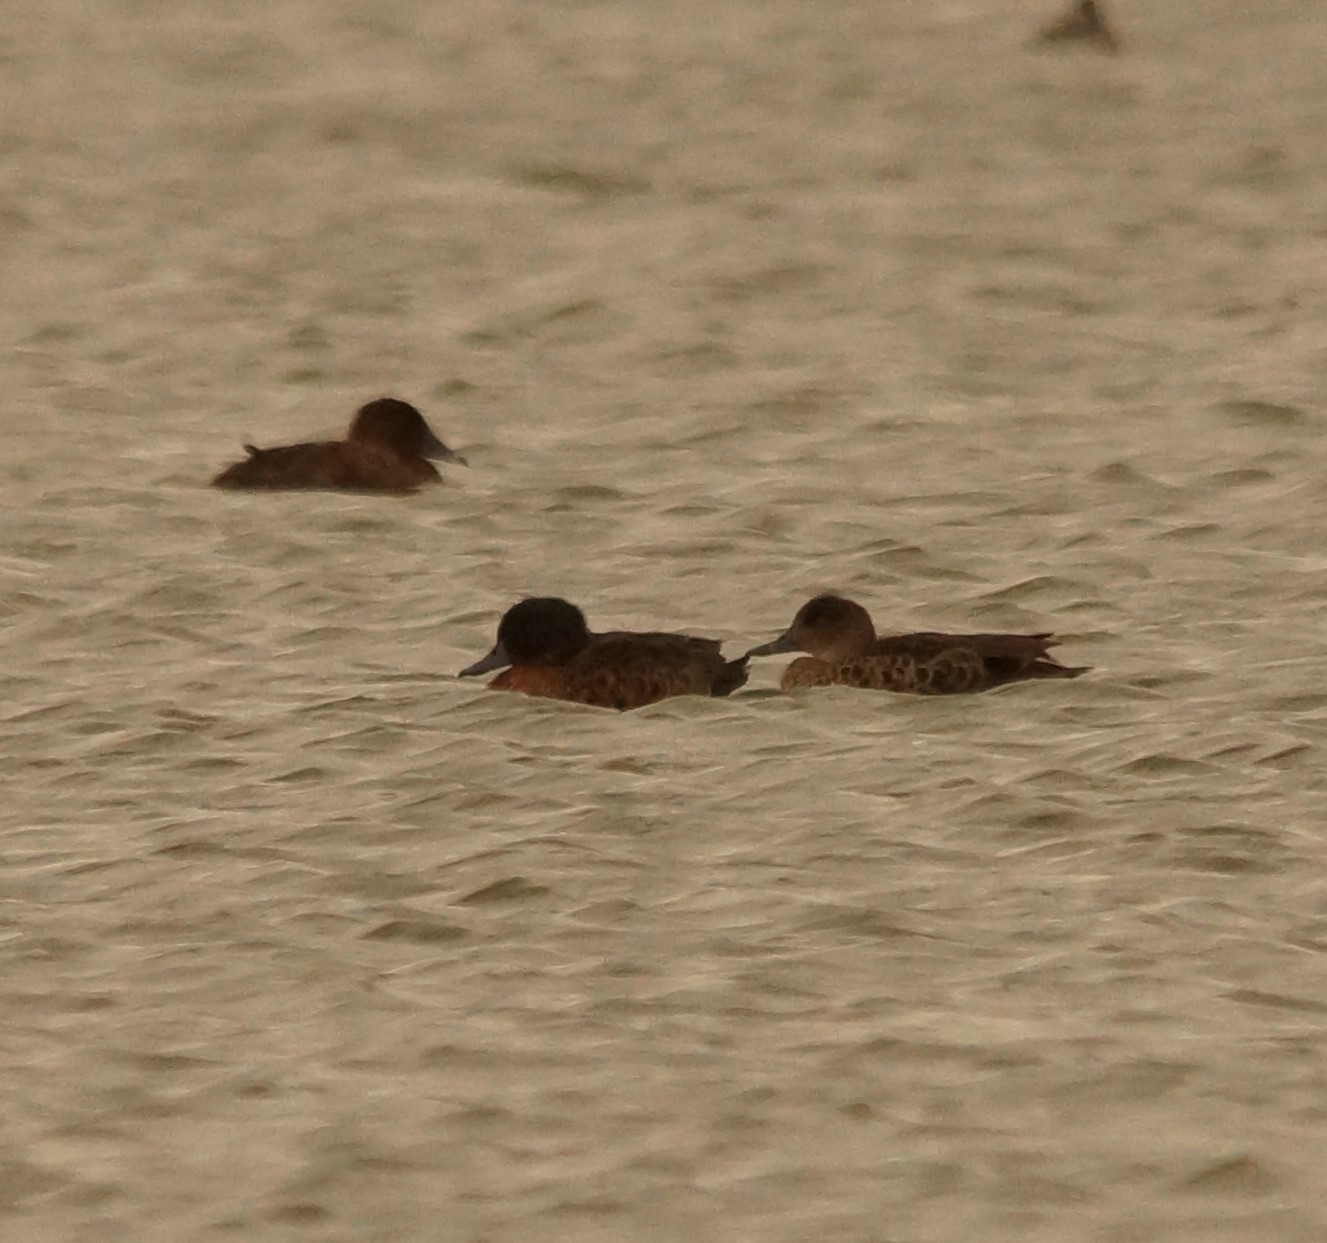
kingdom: Animalia
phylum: Chordata
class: Aves
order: Anseriformes
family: Anatidae
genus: Anas
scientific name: Anas castanea
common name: Chestnut teal
